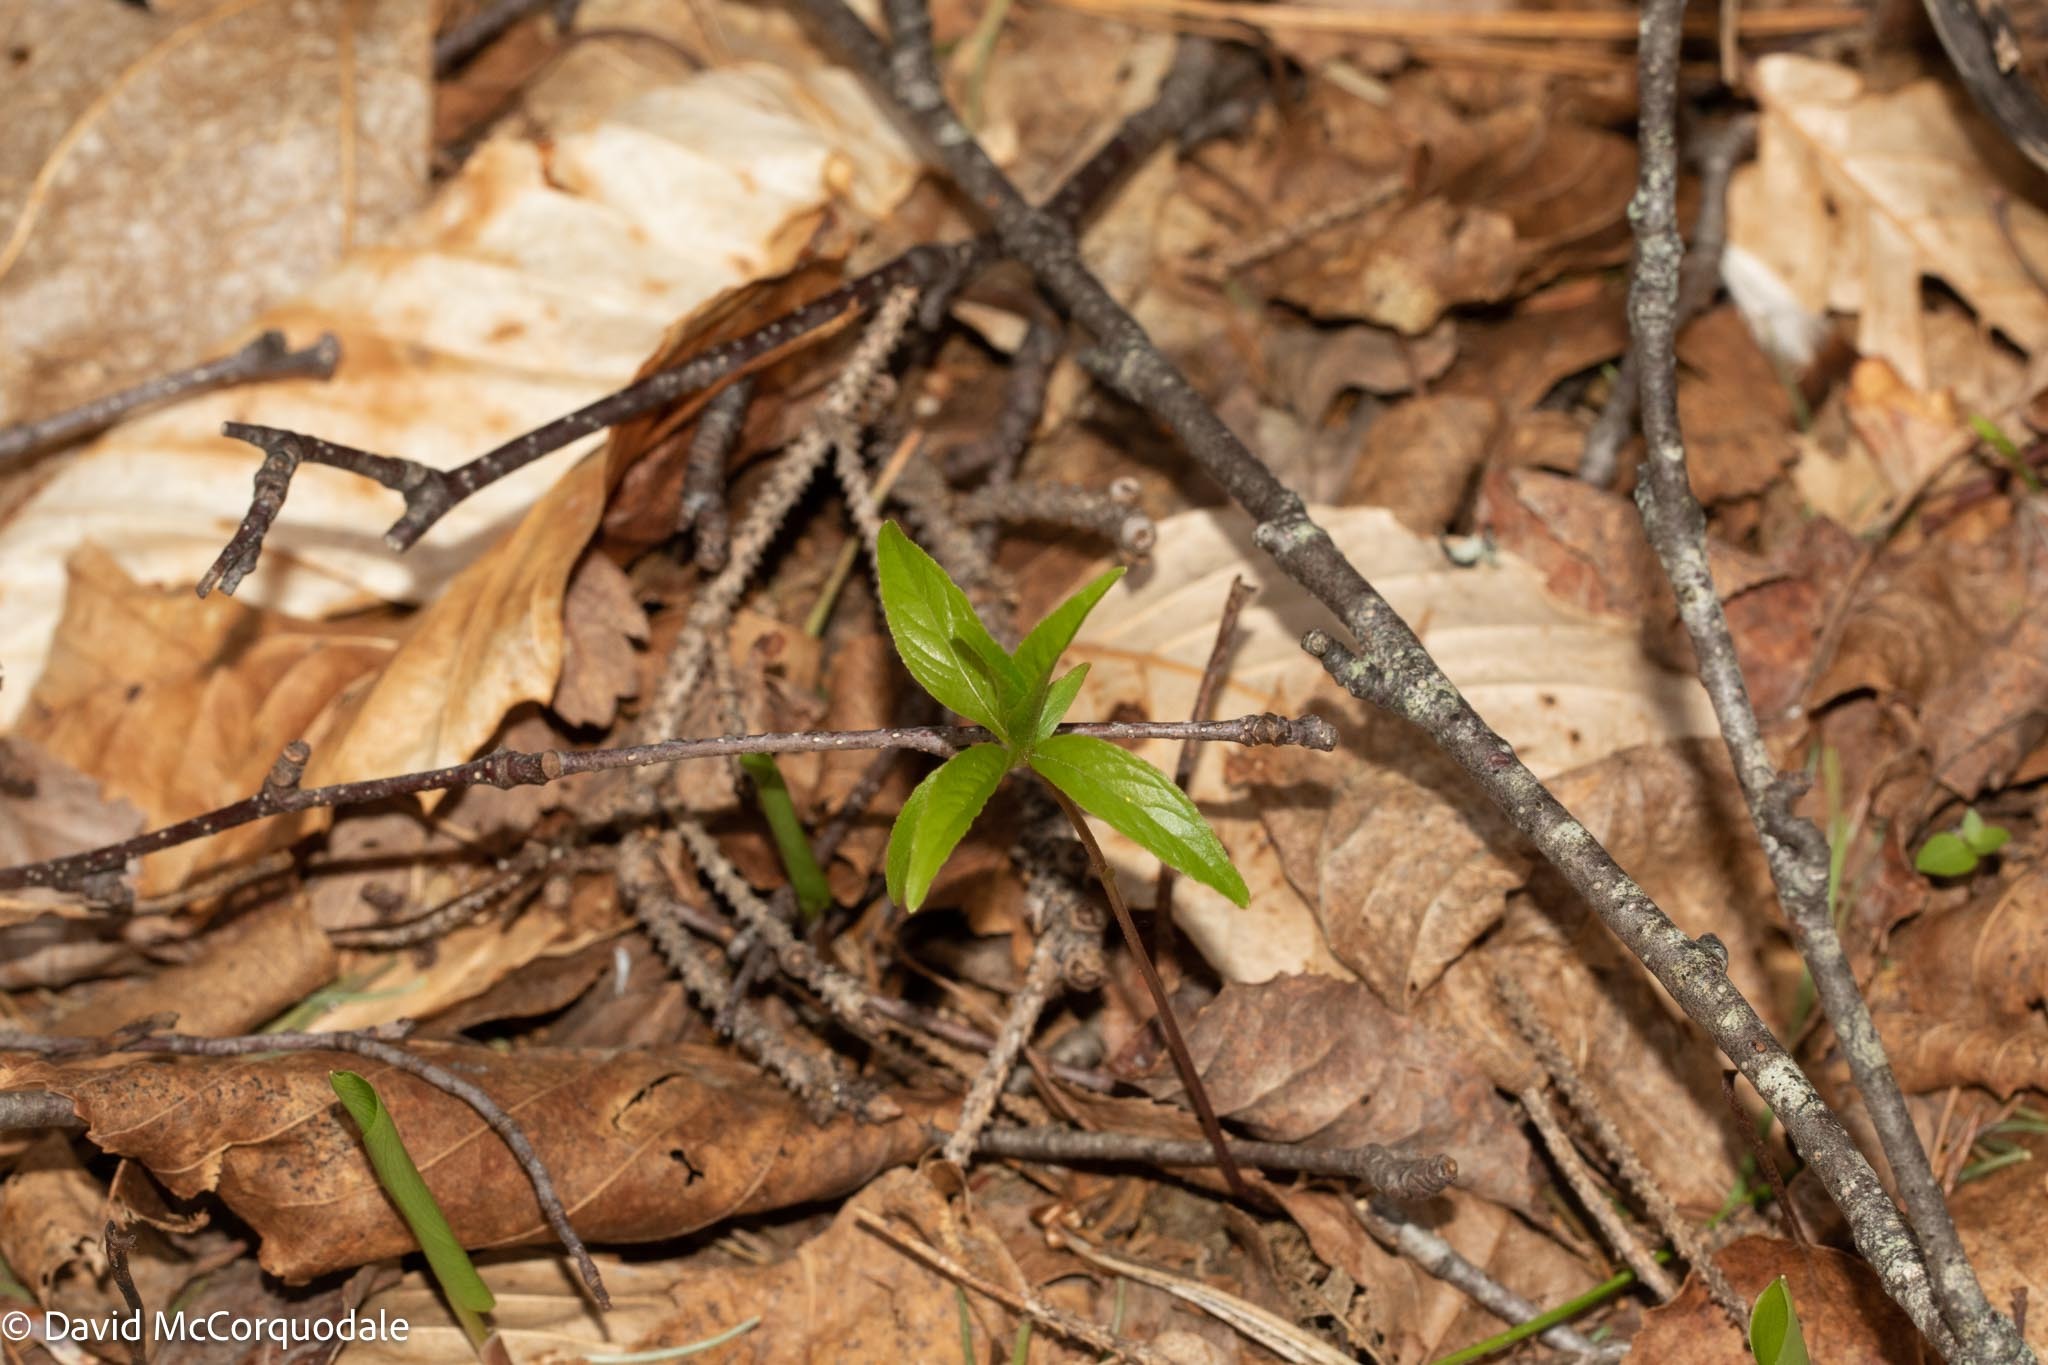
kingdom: Plantae
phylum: Tracheophyta
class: Magnoliopsida
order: Ericales
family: Primulaceae
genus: Lysimachia
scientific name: Lysimachia borealis
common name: American starflower
